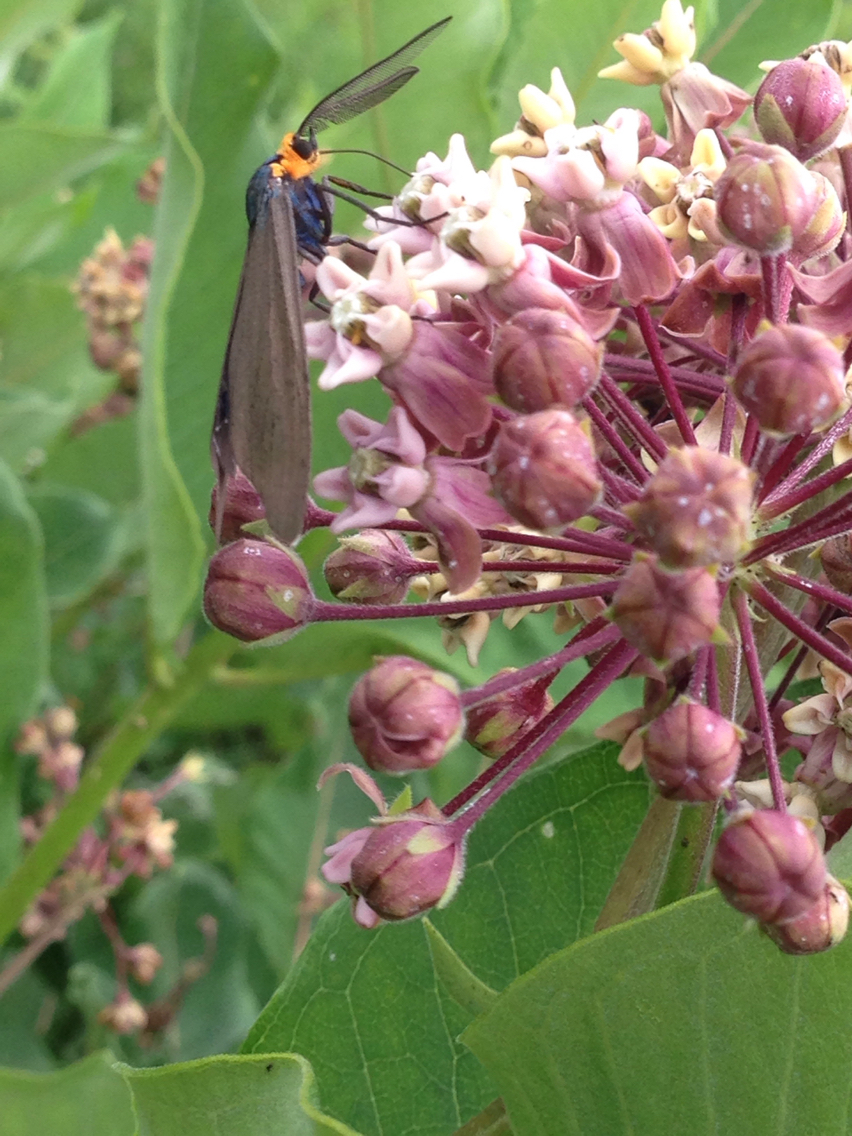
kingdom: Animalia
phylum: Arthropoda
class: Insecta
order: Lepidoptera
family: Erebidae
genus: Ctenucha
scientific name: Ctenucha virginica
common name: Virginia ctenucha moth
